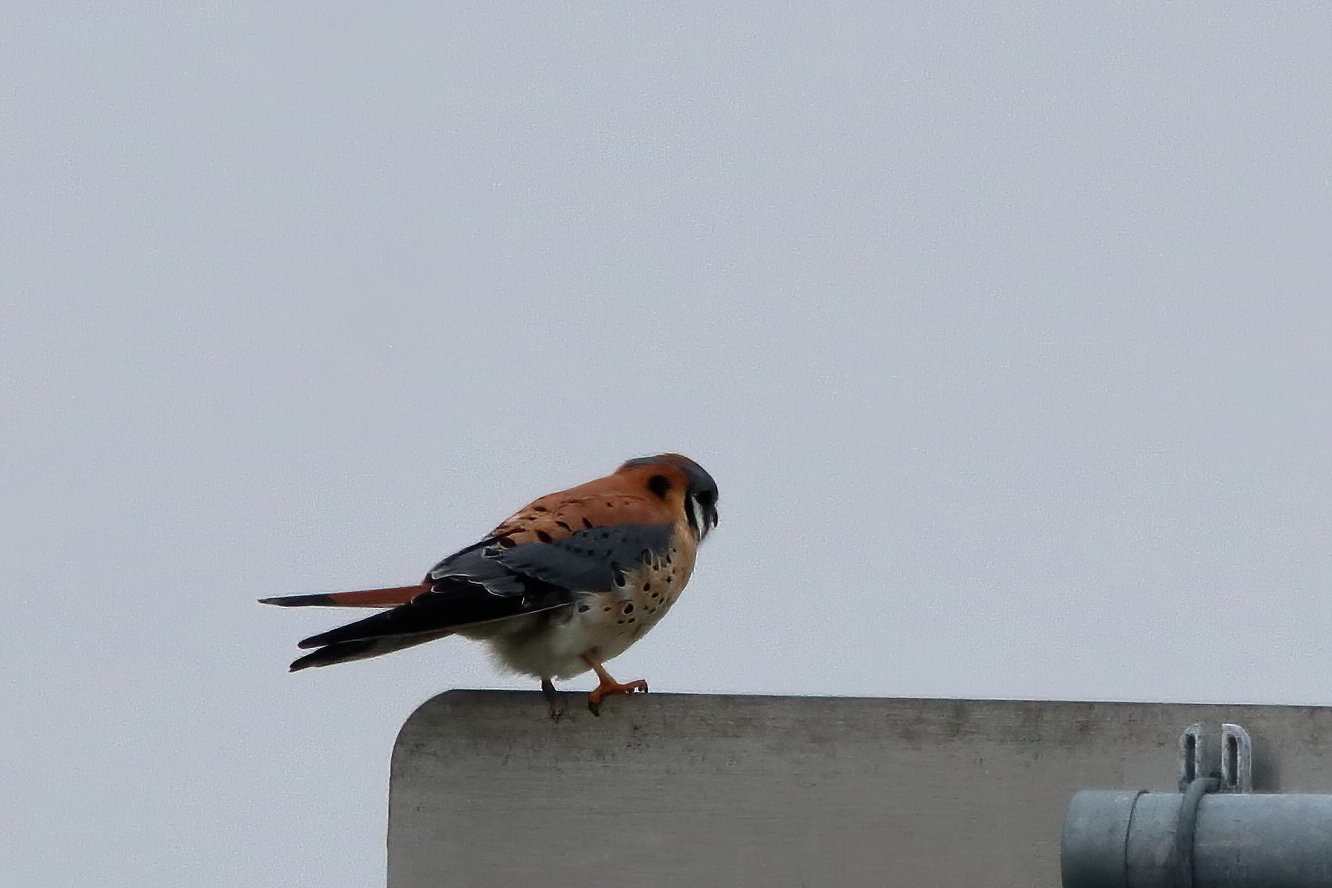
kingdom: Animalia
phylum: Chordata
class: Aves
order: Falconiformes
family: Falconidae
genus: Falco
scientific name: Falco sparverius
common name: American kestrel
